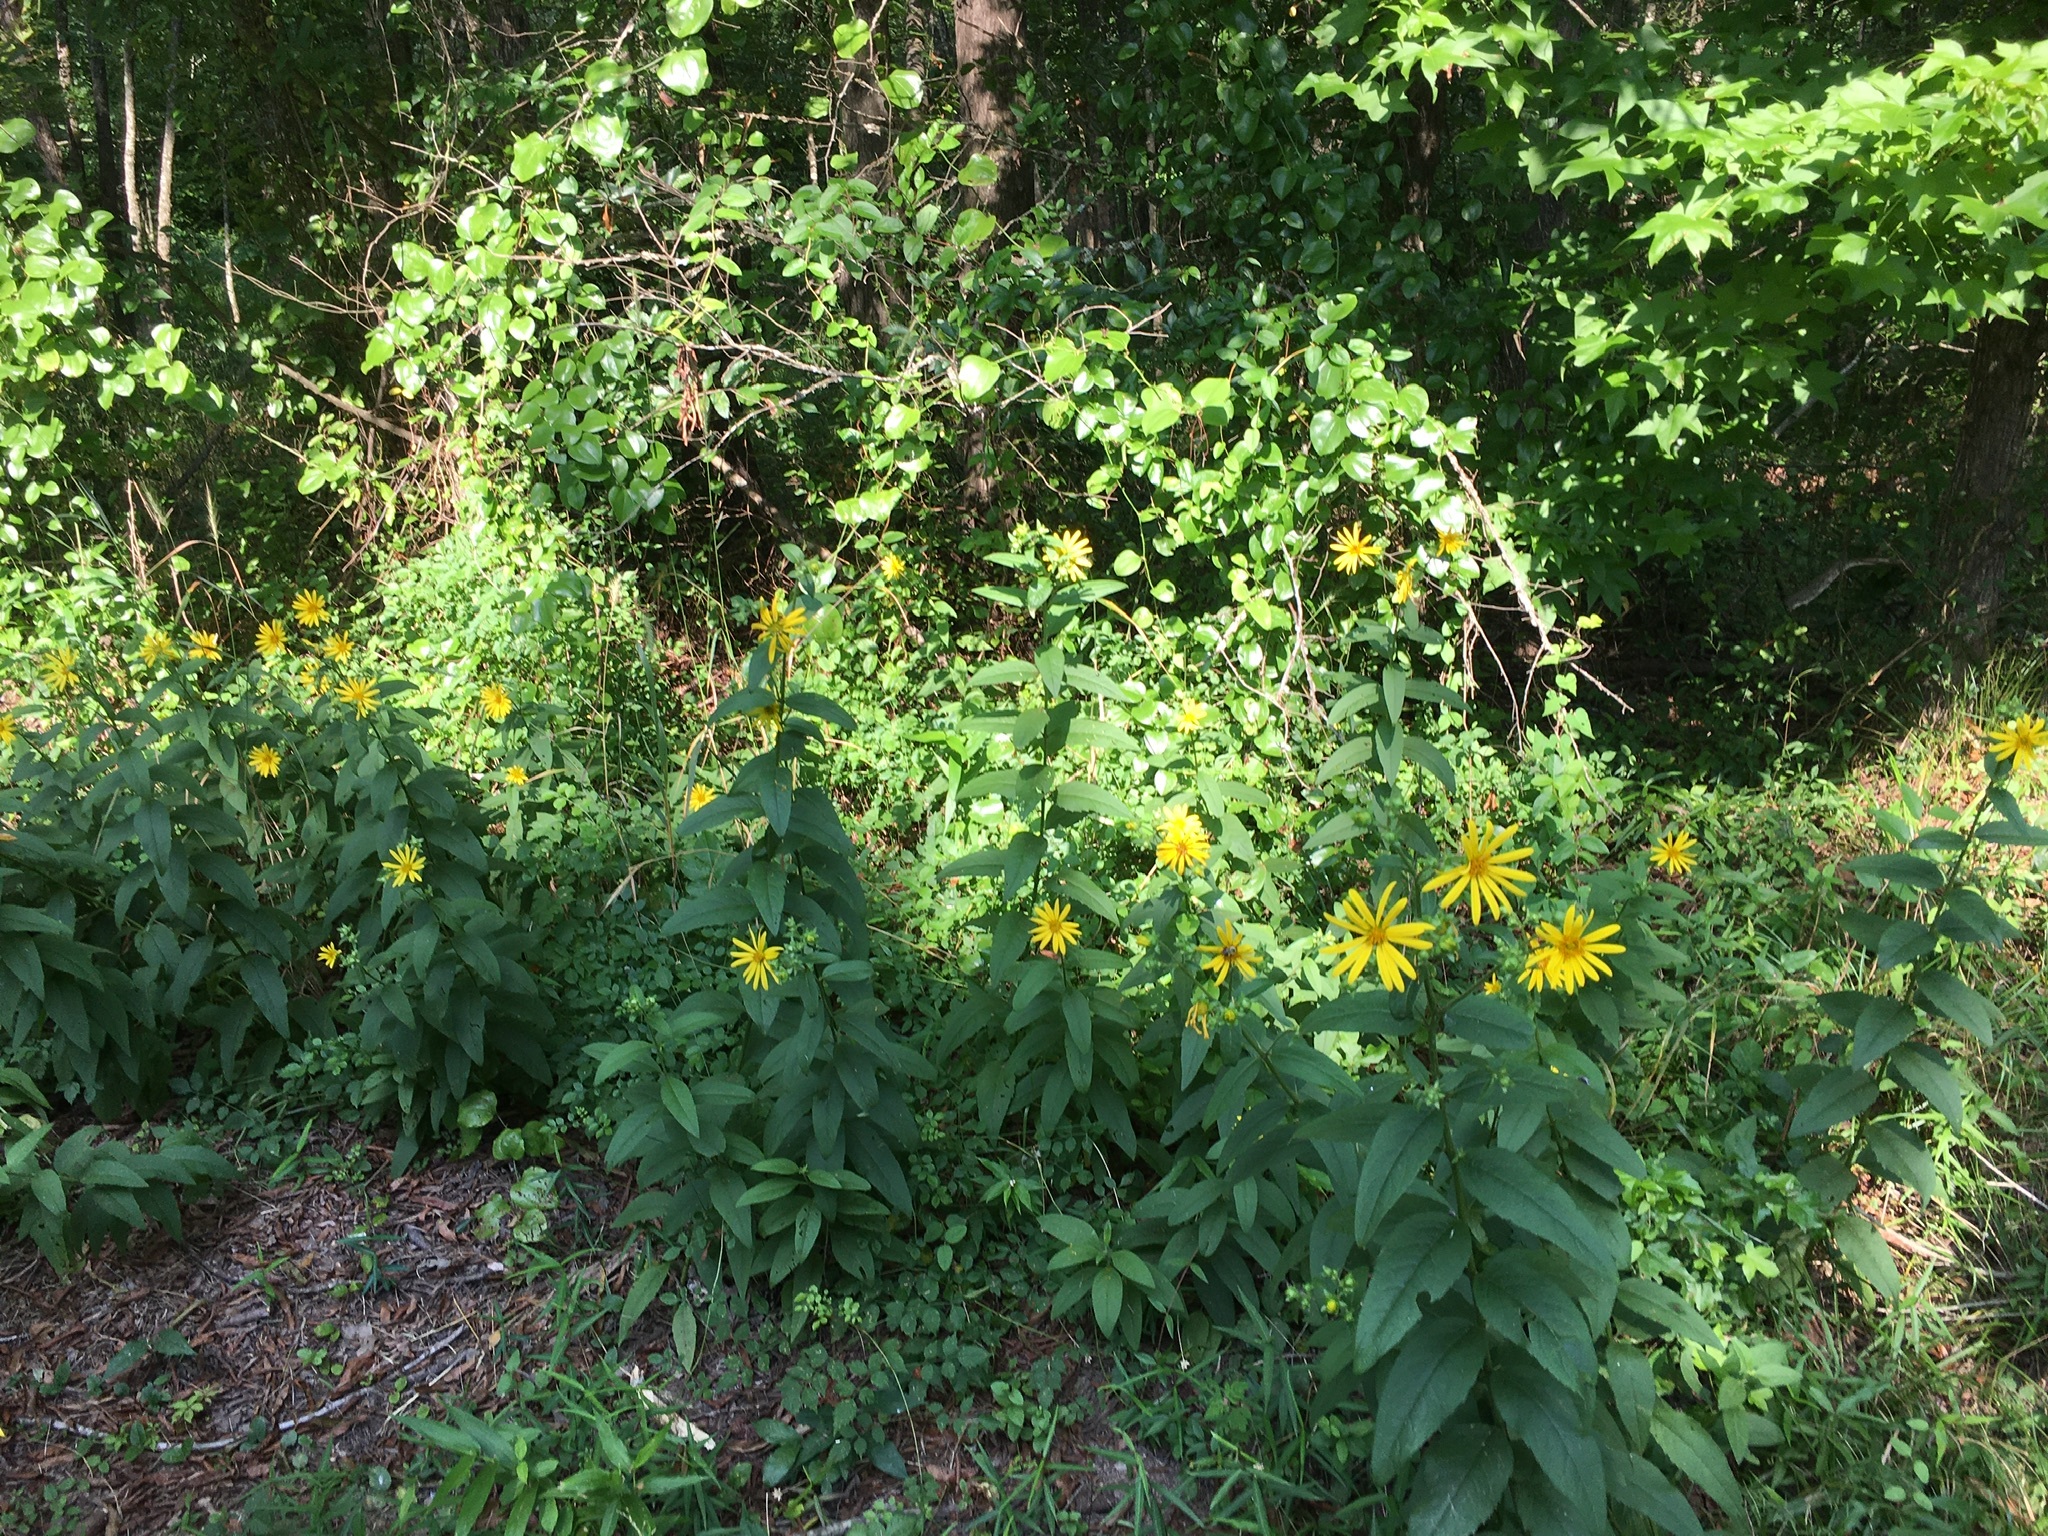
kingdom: Plantae
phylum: Tracheophyta
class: Magnoliopsida
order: Asterales
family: Asteraceae
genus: Silphium
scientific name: Silphium asteriscus
